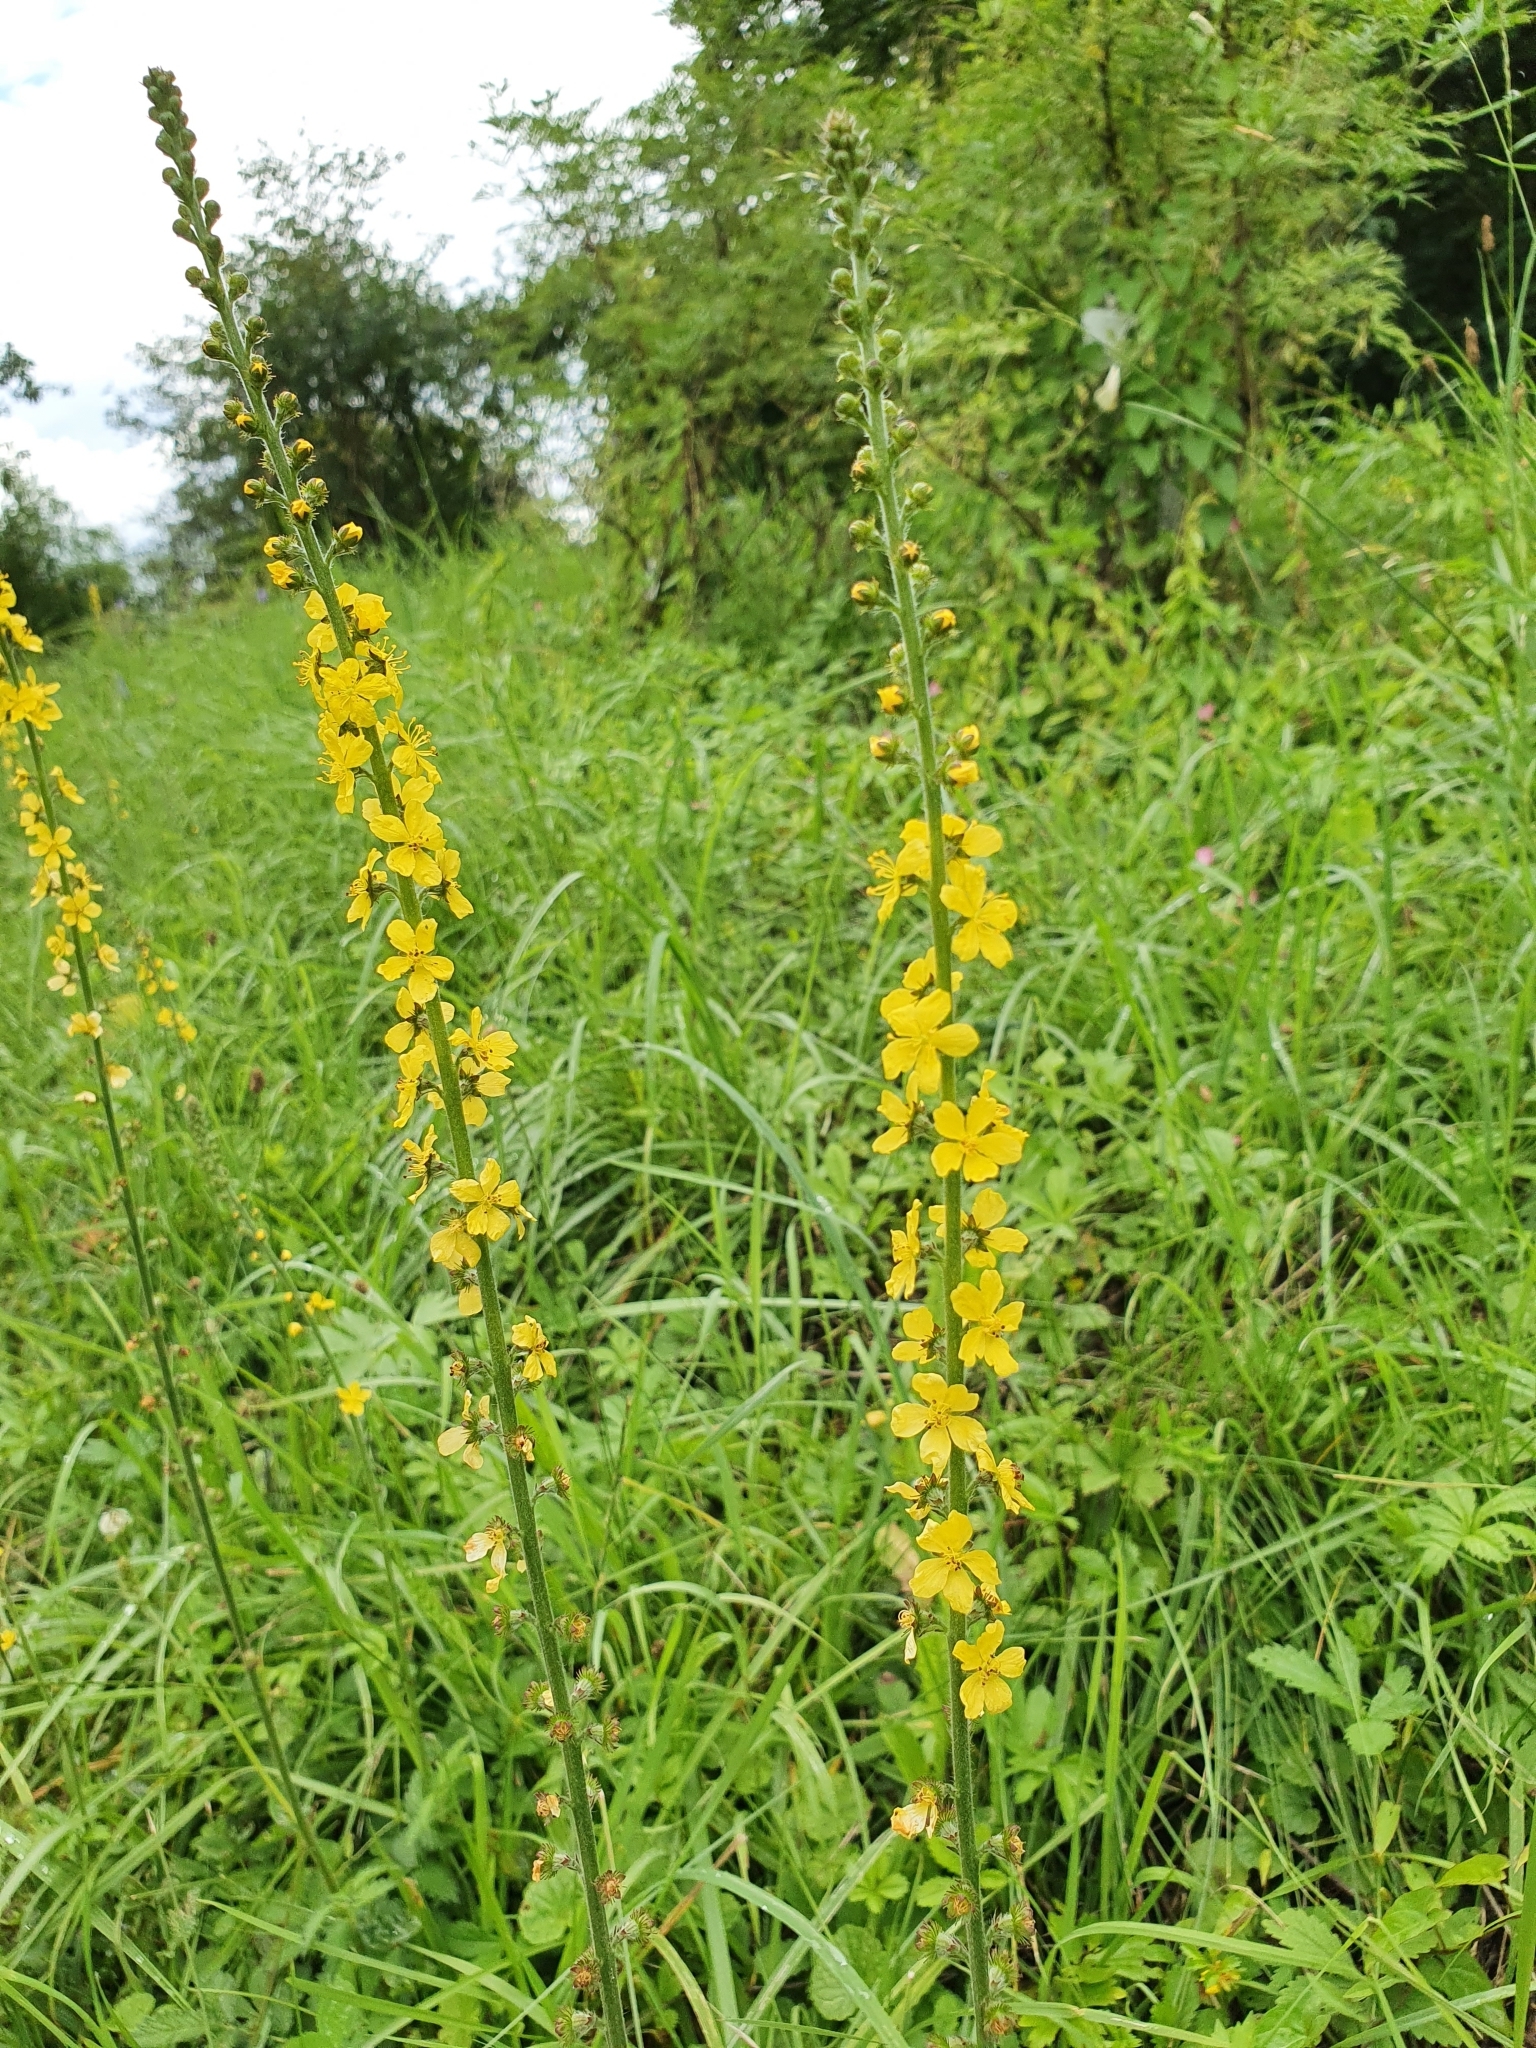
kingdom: Plantae
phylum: Tracheophyta
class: Magnoliopsida
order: Rosales
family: Rosaceae
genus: Agrimonia
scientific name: Agrimonia eupatoria
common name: Agrimony
